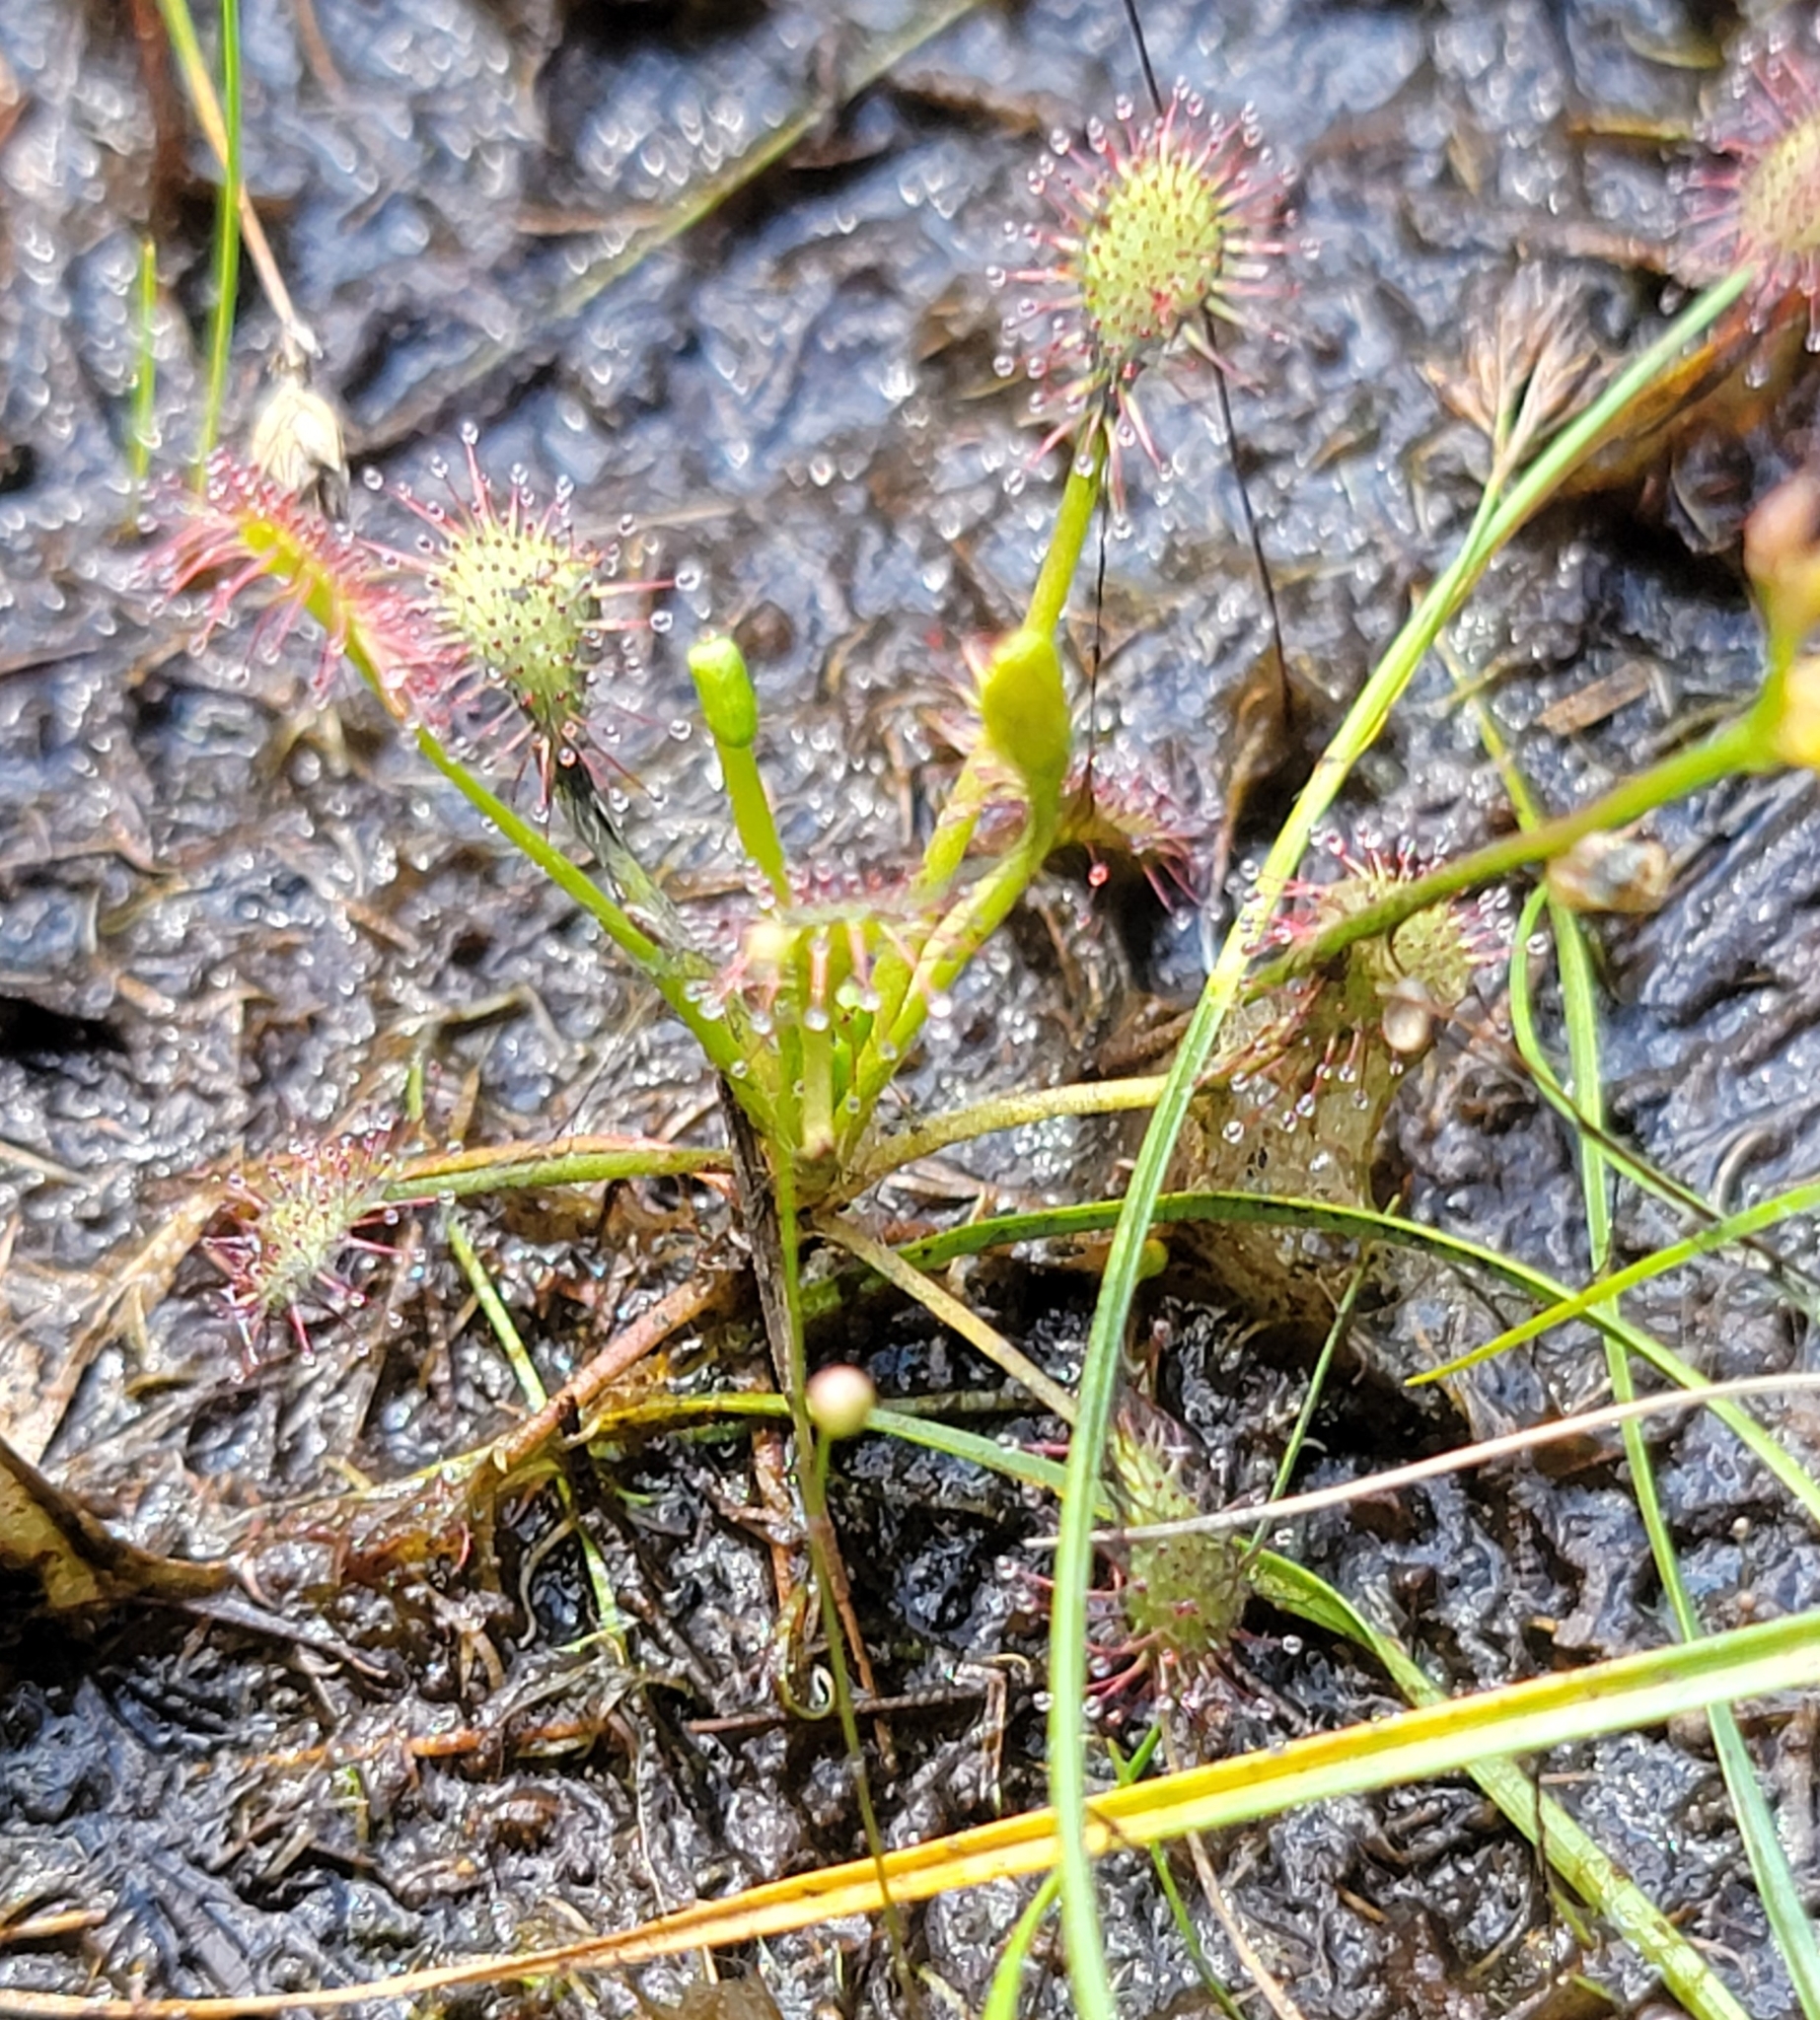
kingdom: Plantae
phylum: Tracheophyta
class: Magnoliopsida
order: Caryophyllales
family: Droseraceae
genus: Drosera
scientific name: Drosera intermedia
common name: Oblong-leaved sundew
